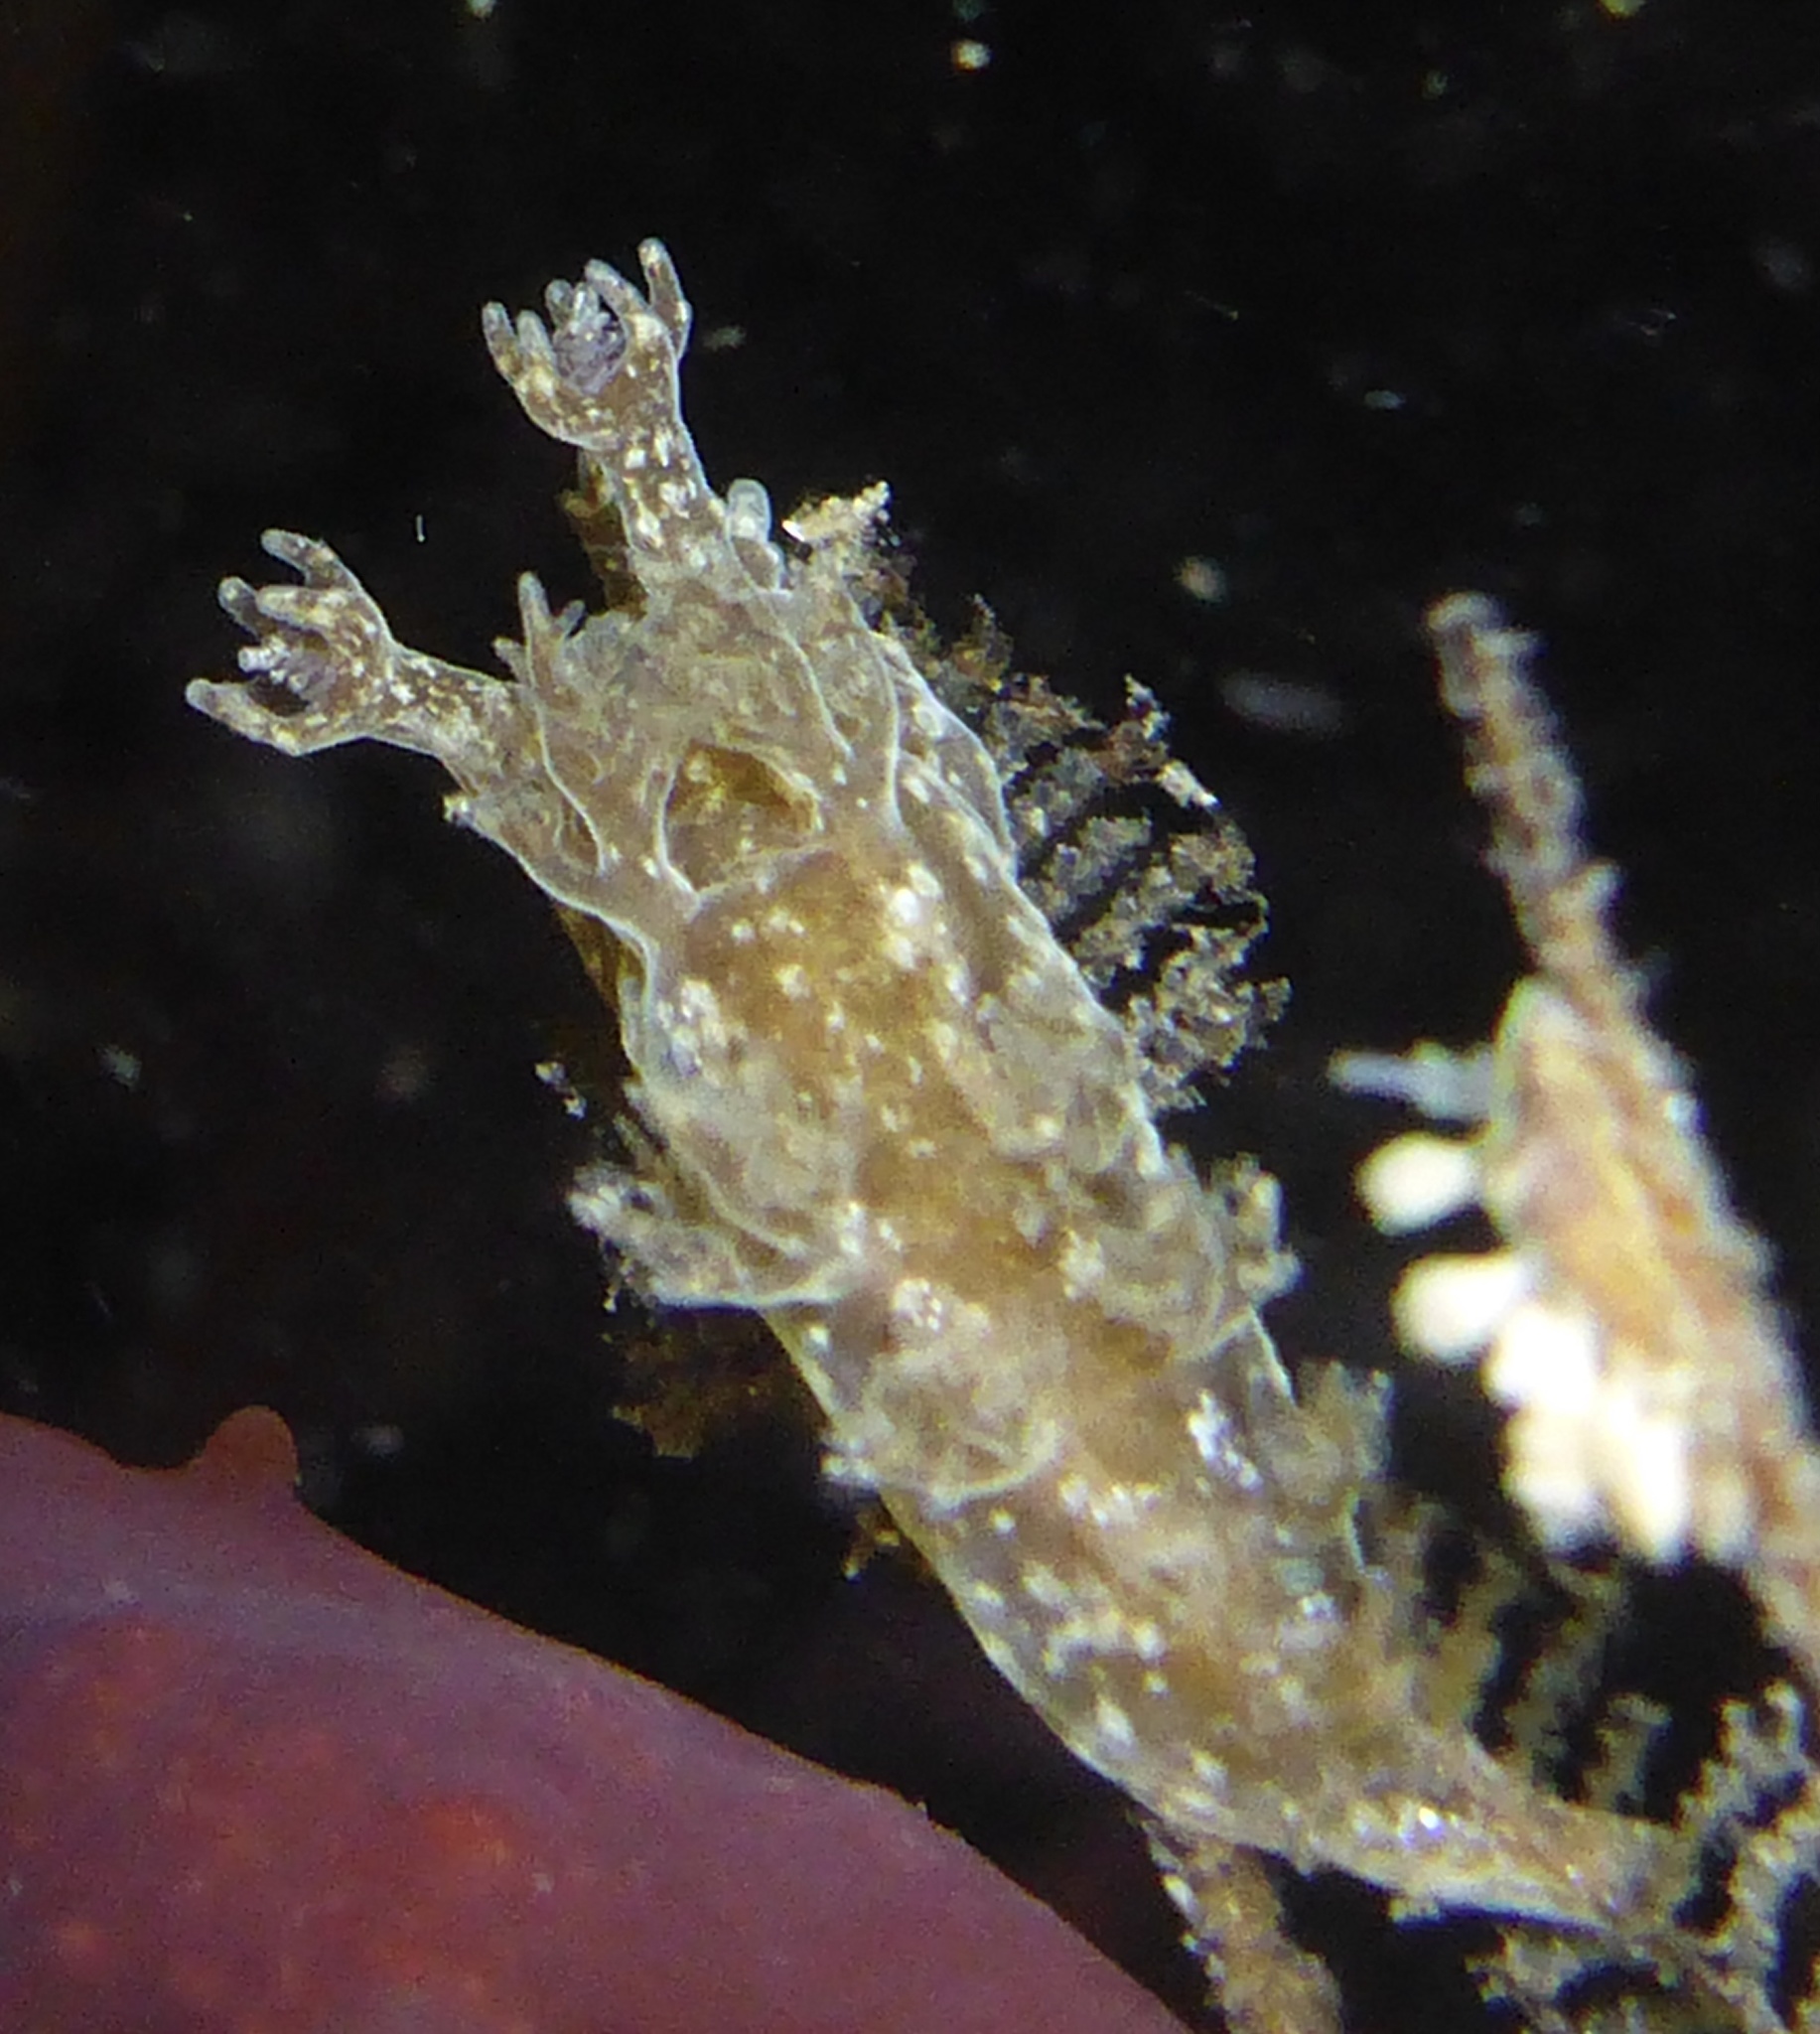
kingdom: Animalia
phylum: Mollusca
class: Gastropoda
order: Nudibranchia
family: Dendronotidae
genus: Dendronotus
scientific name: Dendronotus subramosus
